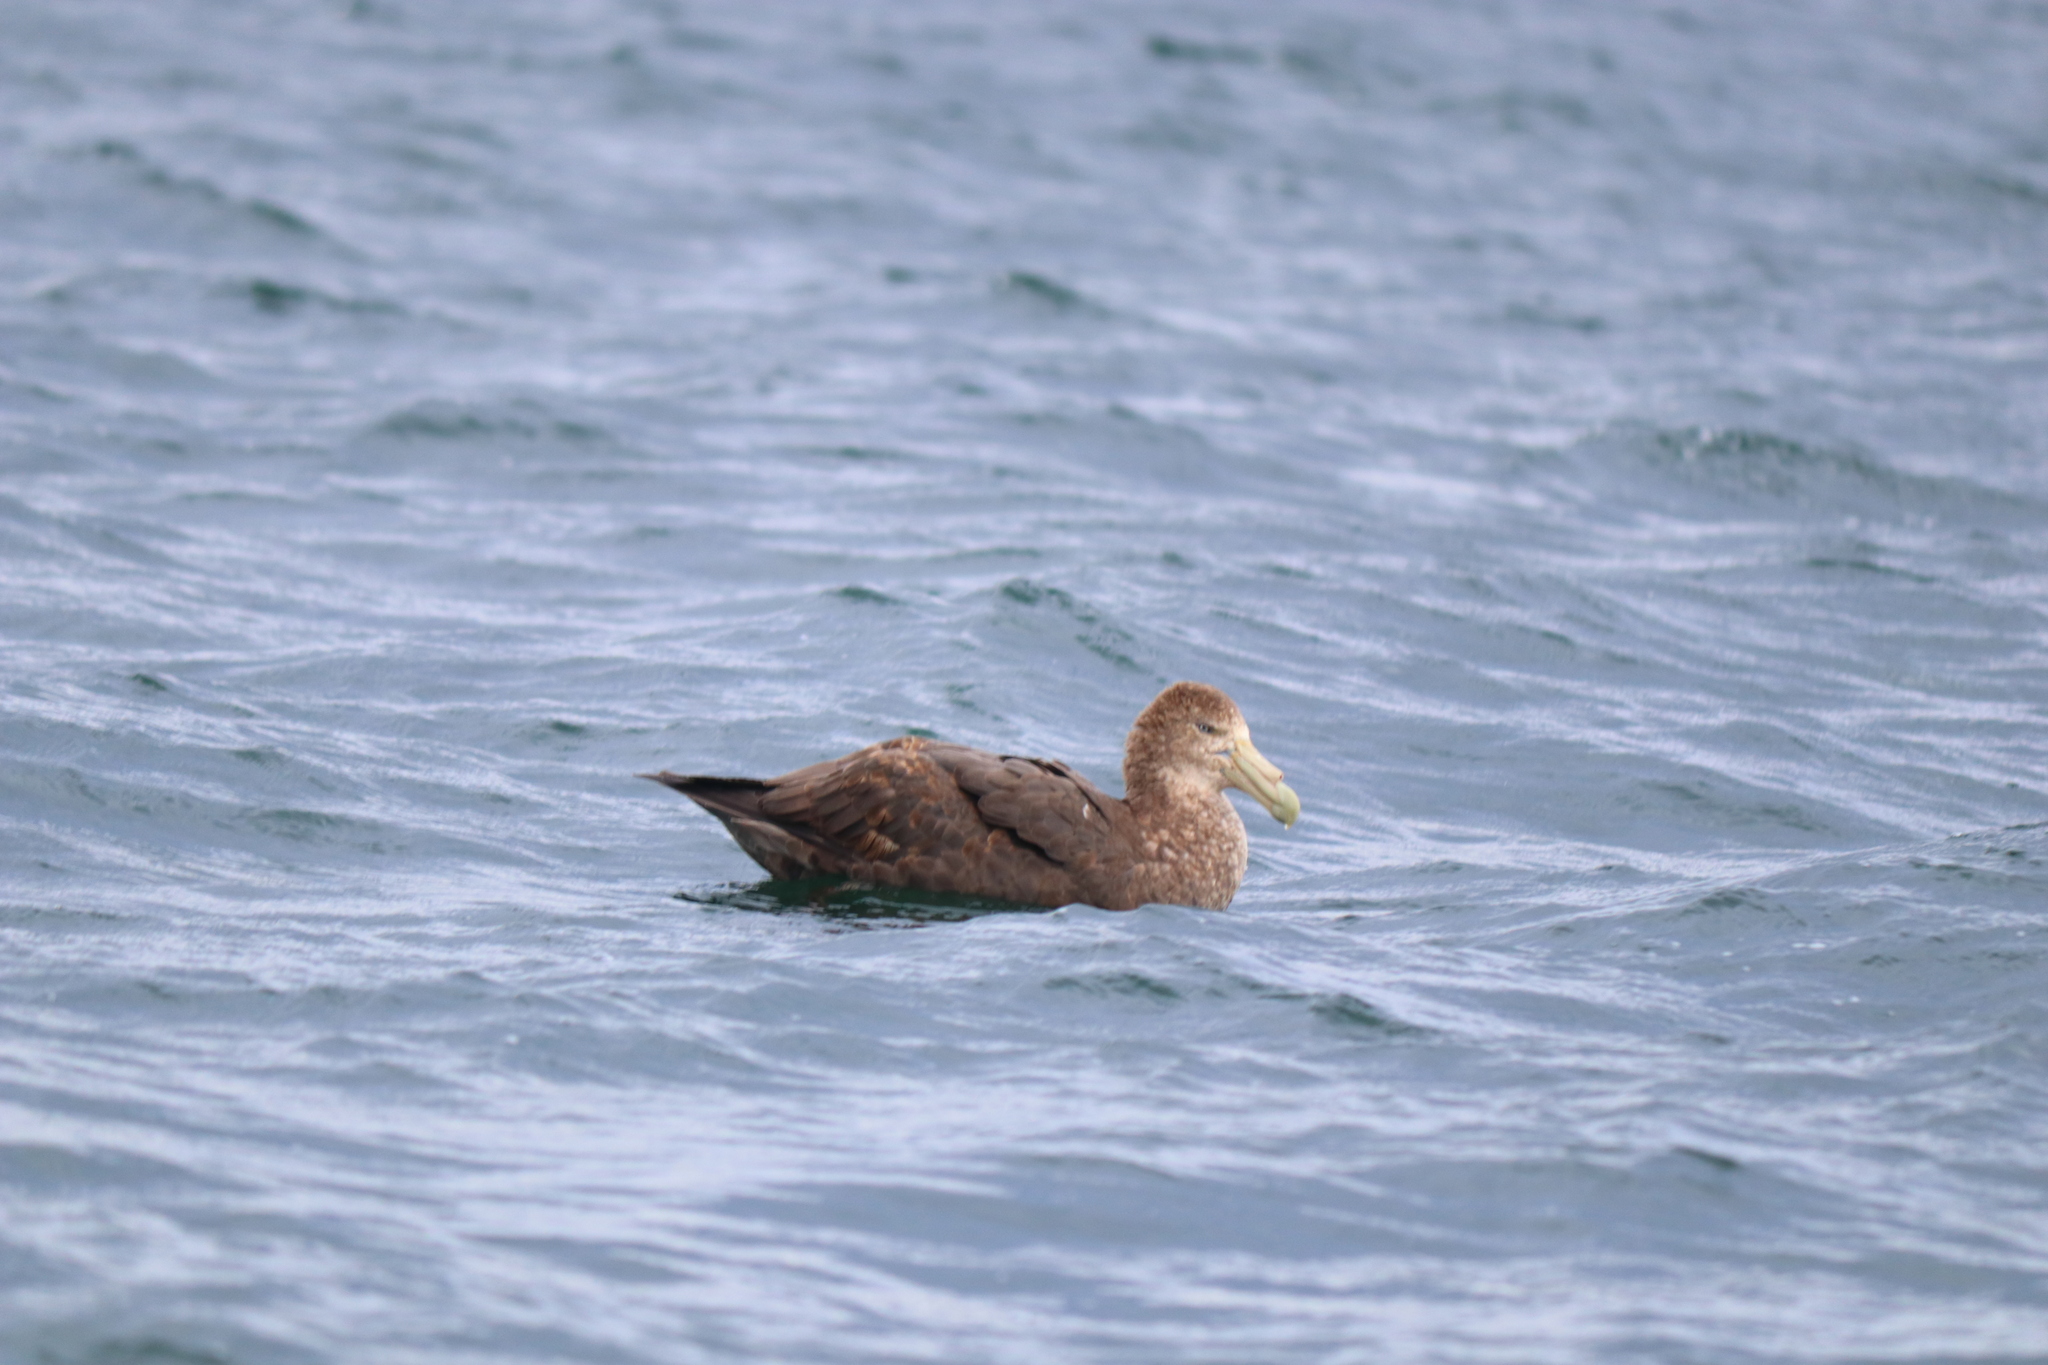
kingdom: Animalia
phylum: Chordata
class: Aves
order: Procellariiformes
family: Procellariidae
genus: Macronectes
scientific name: Macronectes giganteus
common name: Southern giant petrel
